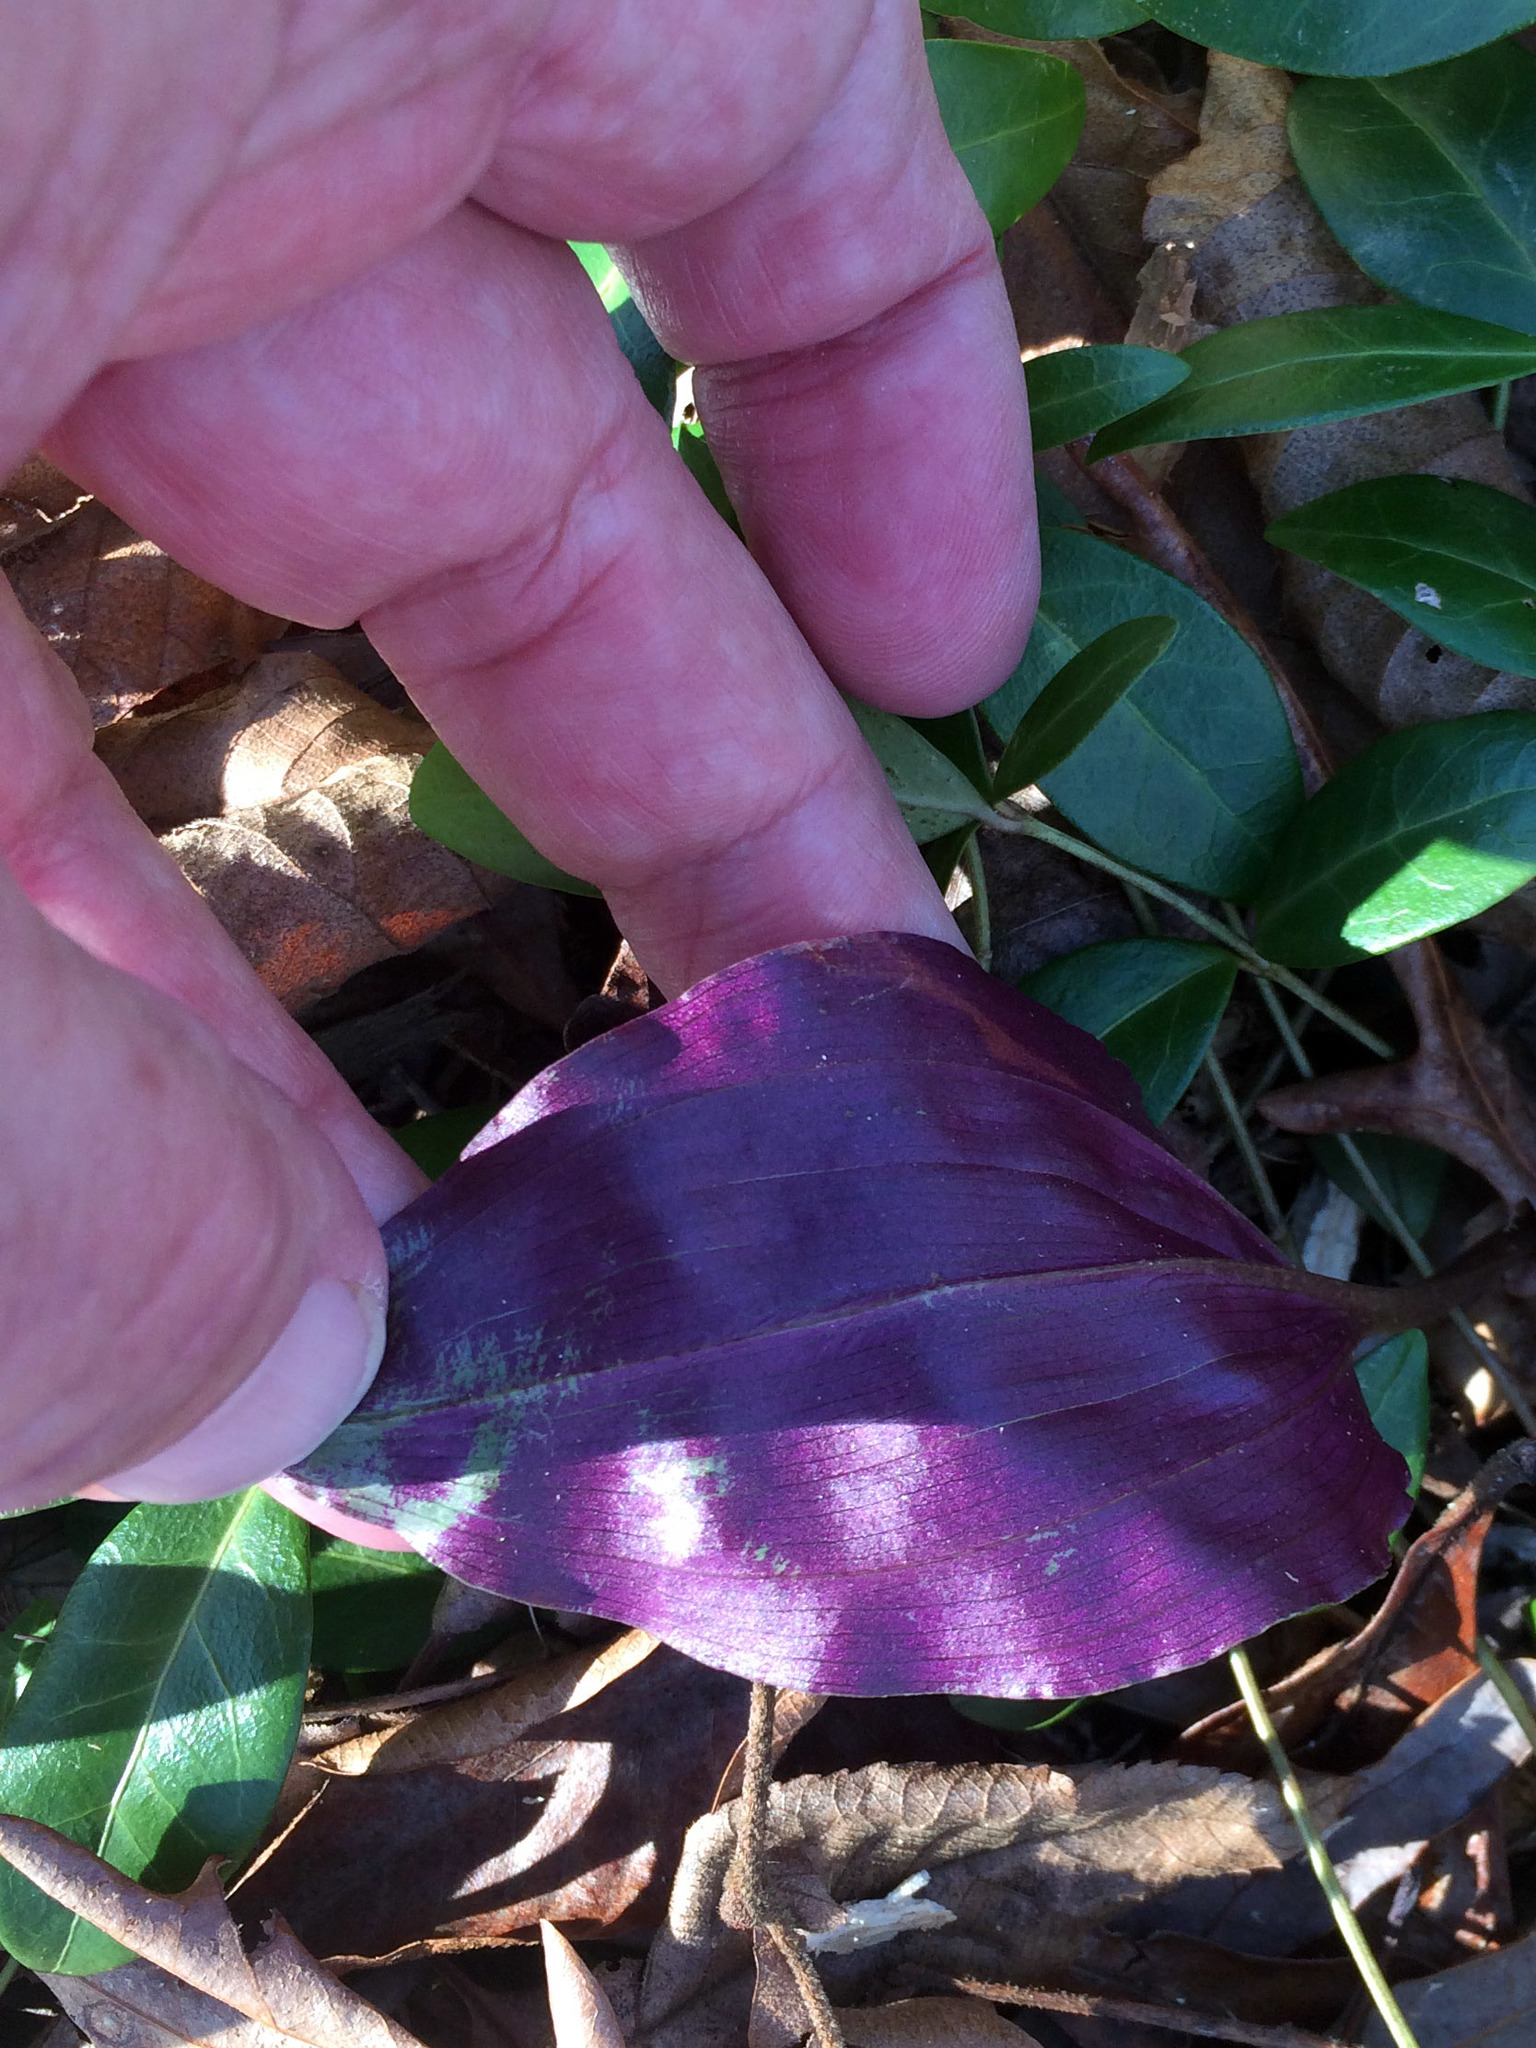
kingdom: Plantae
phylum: Tracheophyta
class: Liliopsida
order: Asparagales
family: Orchidaceae
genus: Tipularia
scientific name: Tipularia discolor
